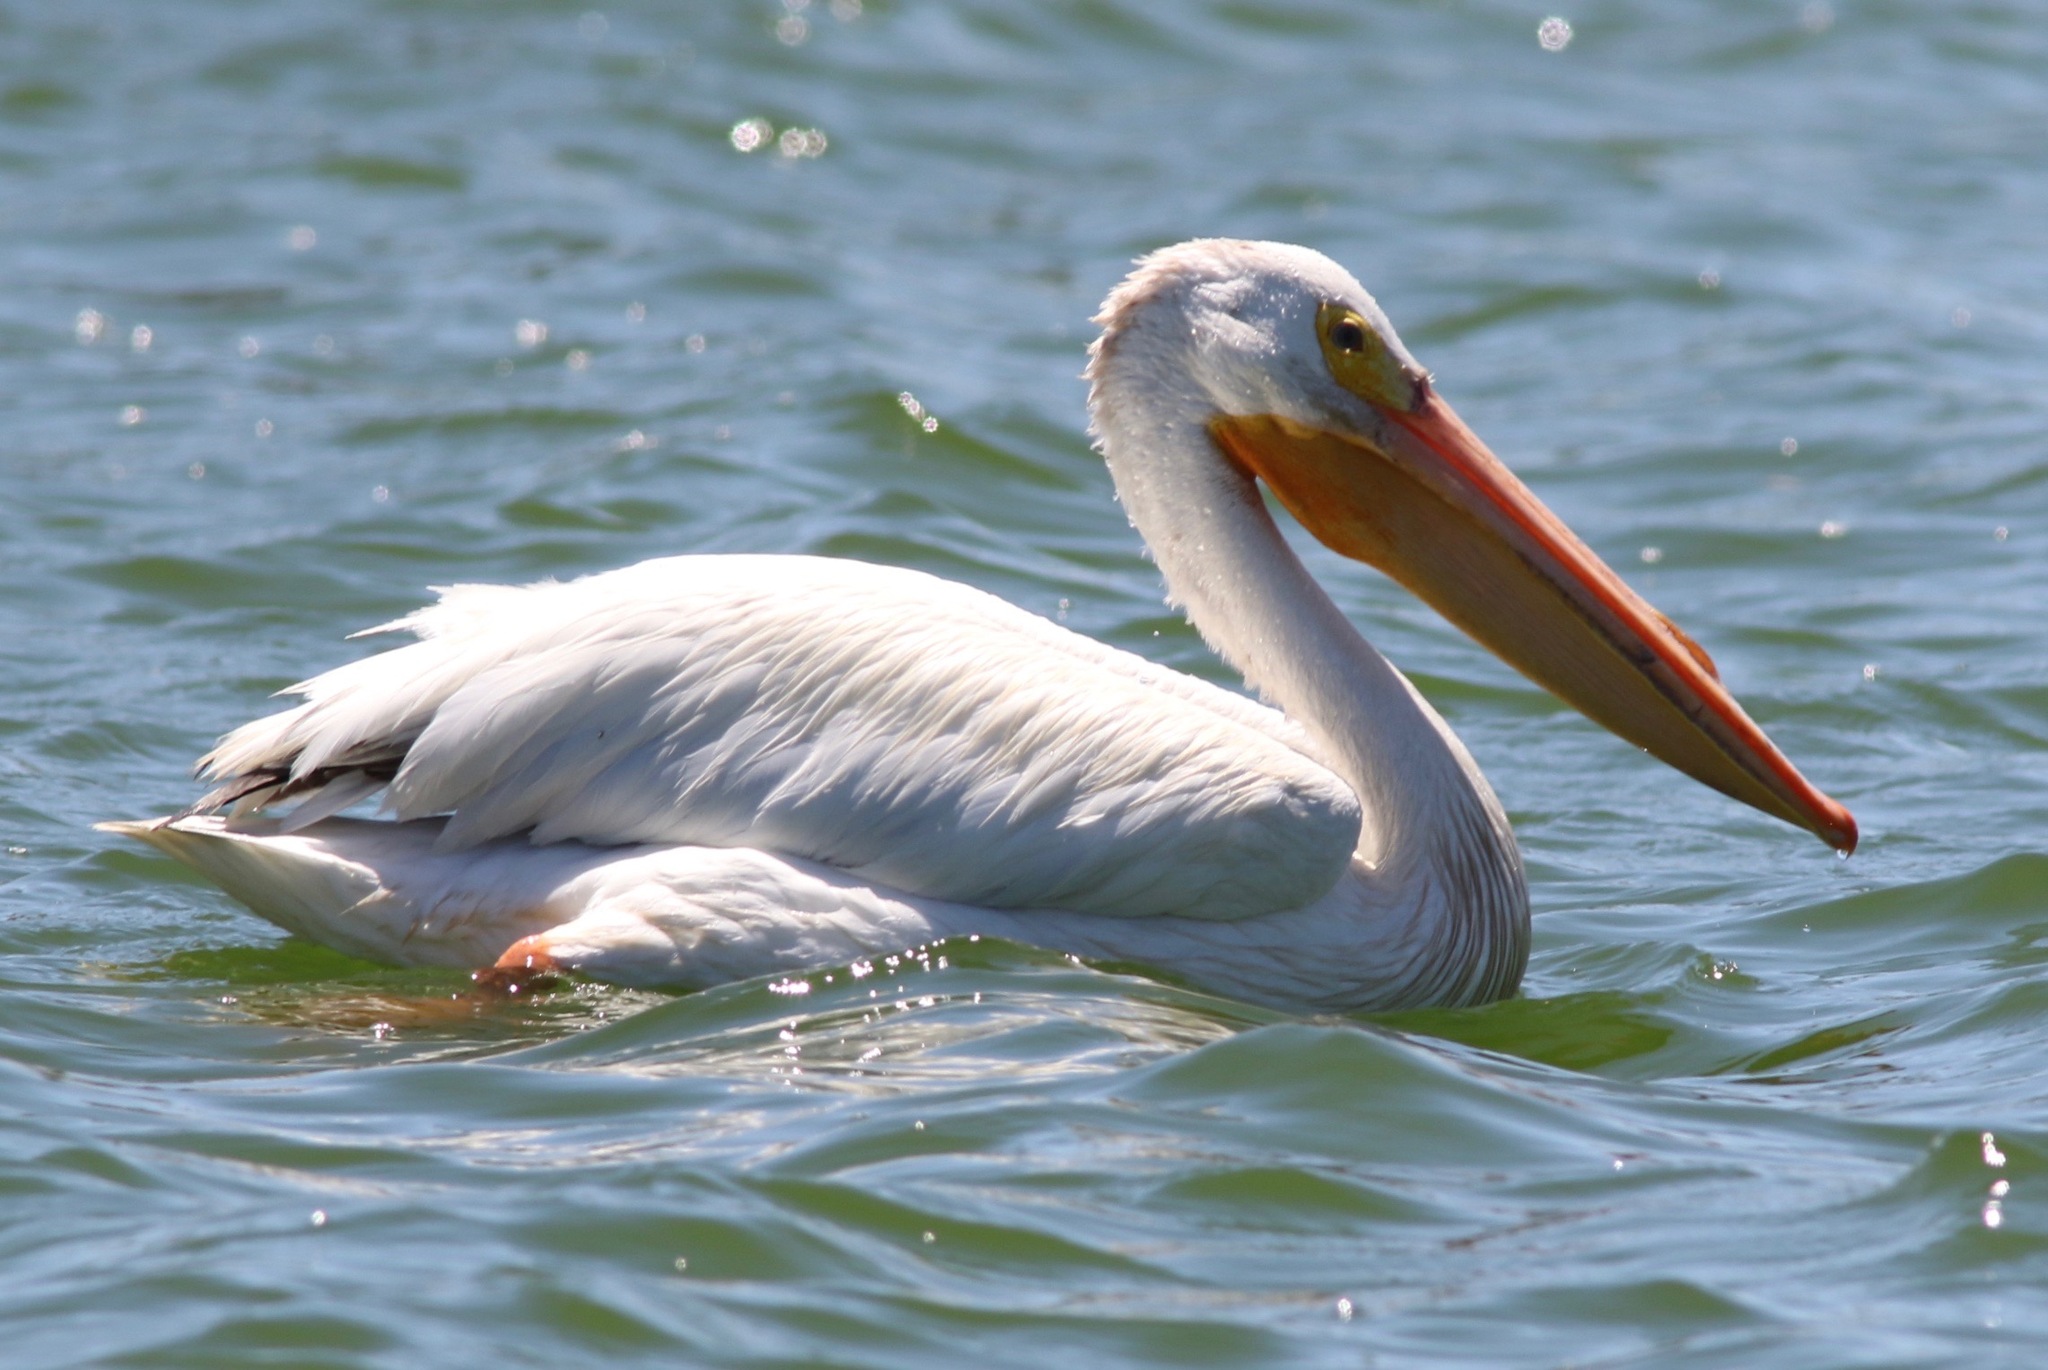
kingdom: Animalia
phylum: Chordata
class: Aves
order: Pelecaniformes
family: Pelecanidae
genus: Pelecanus
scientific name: Pelecanus erythrorhynchos
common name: American white pelican
